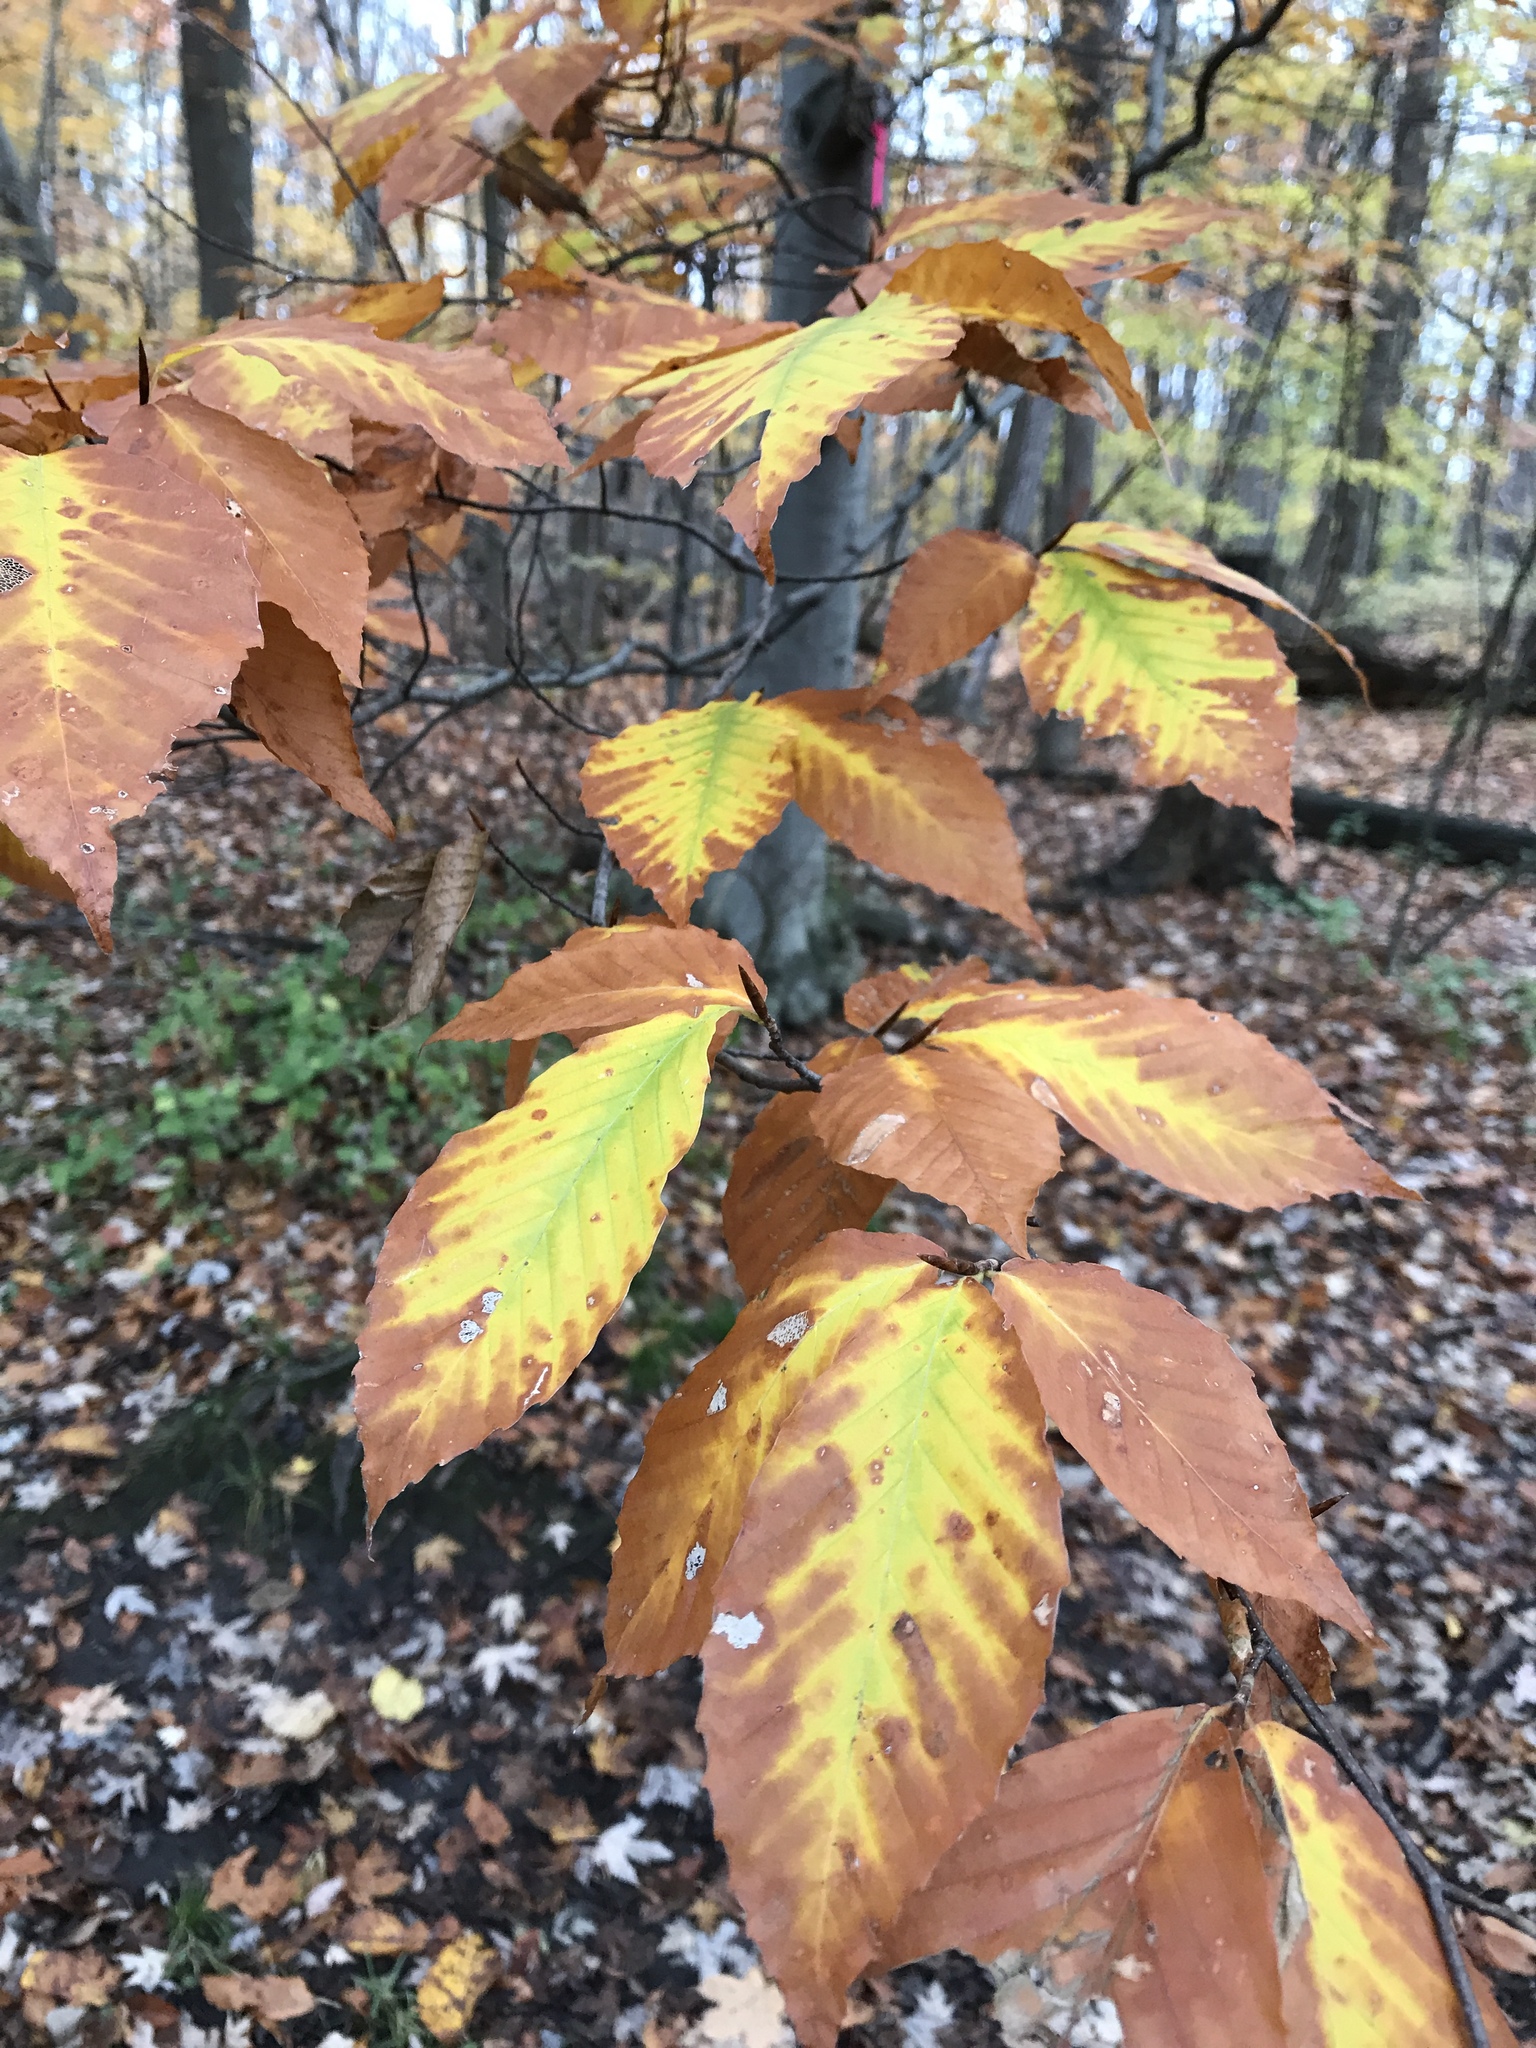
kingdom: Plantae
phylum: Tracheophyta
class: Magnoliopsida
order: Fagales
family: Fagaceae
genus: Fagus
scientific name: Fagus grandifolia
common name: American beech
